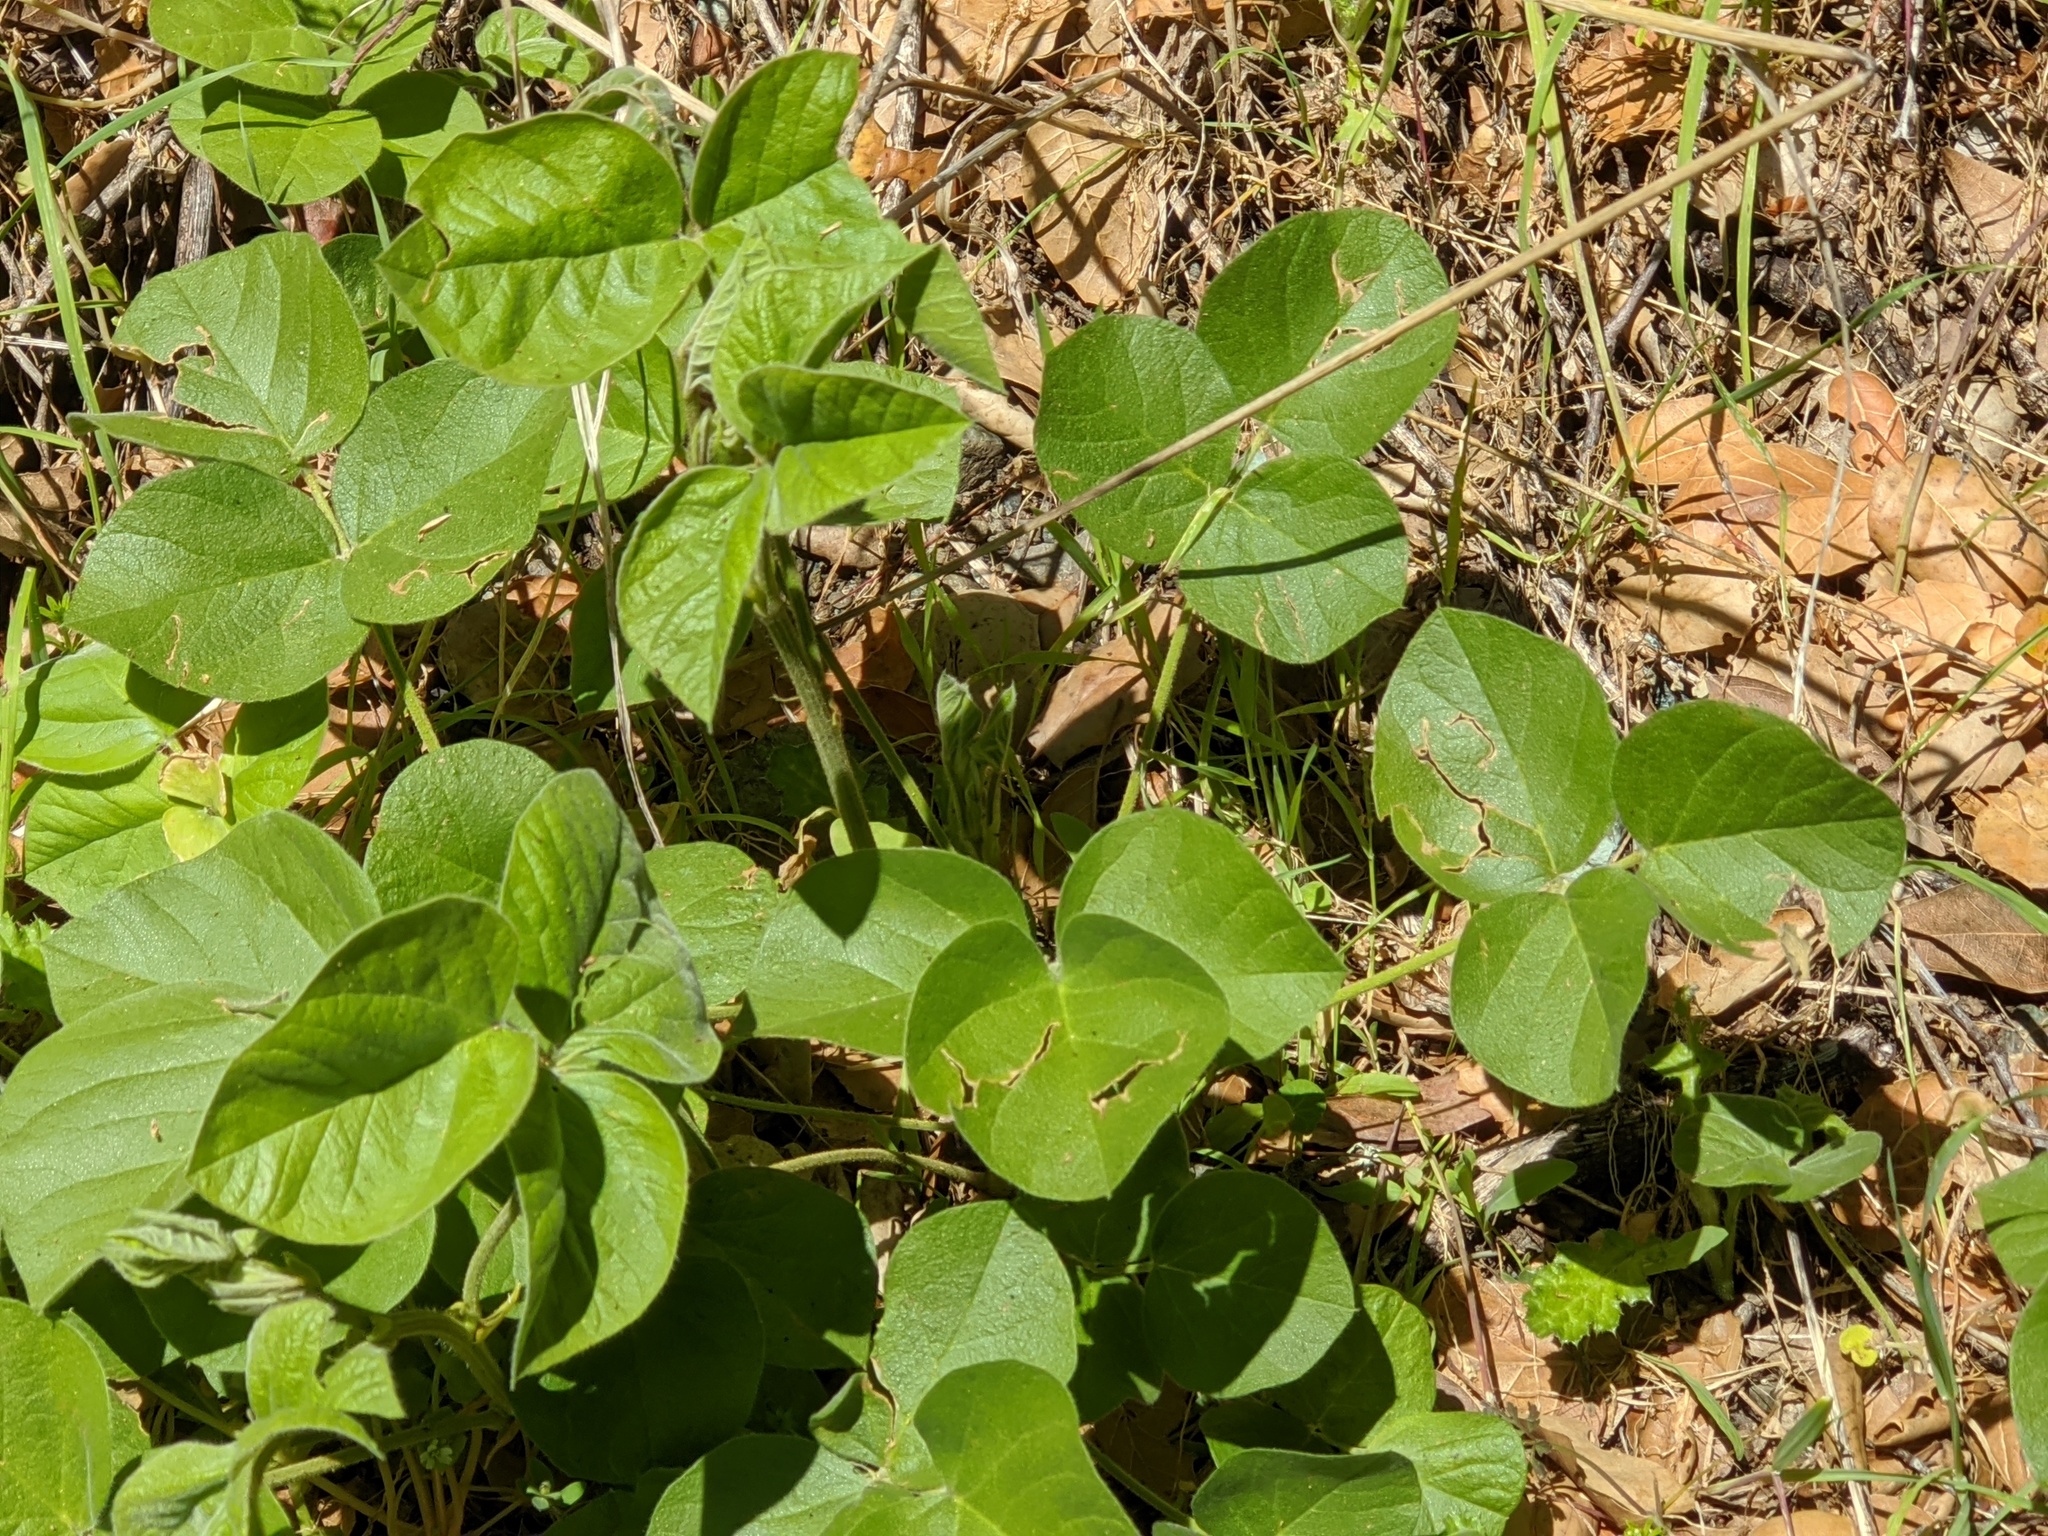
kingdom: Plantae
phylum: Tracheophyta
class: Magnoliopsida
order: Fabales
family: Fabaceae
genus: Hoita
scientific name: Hoita strobilina
